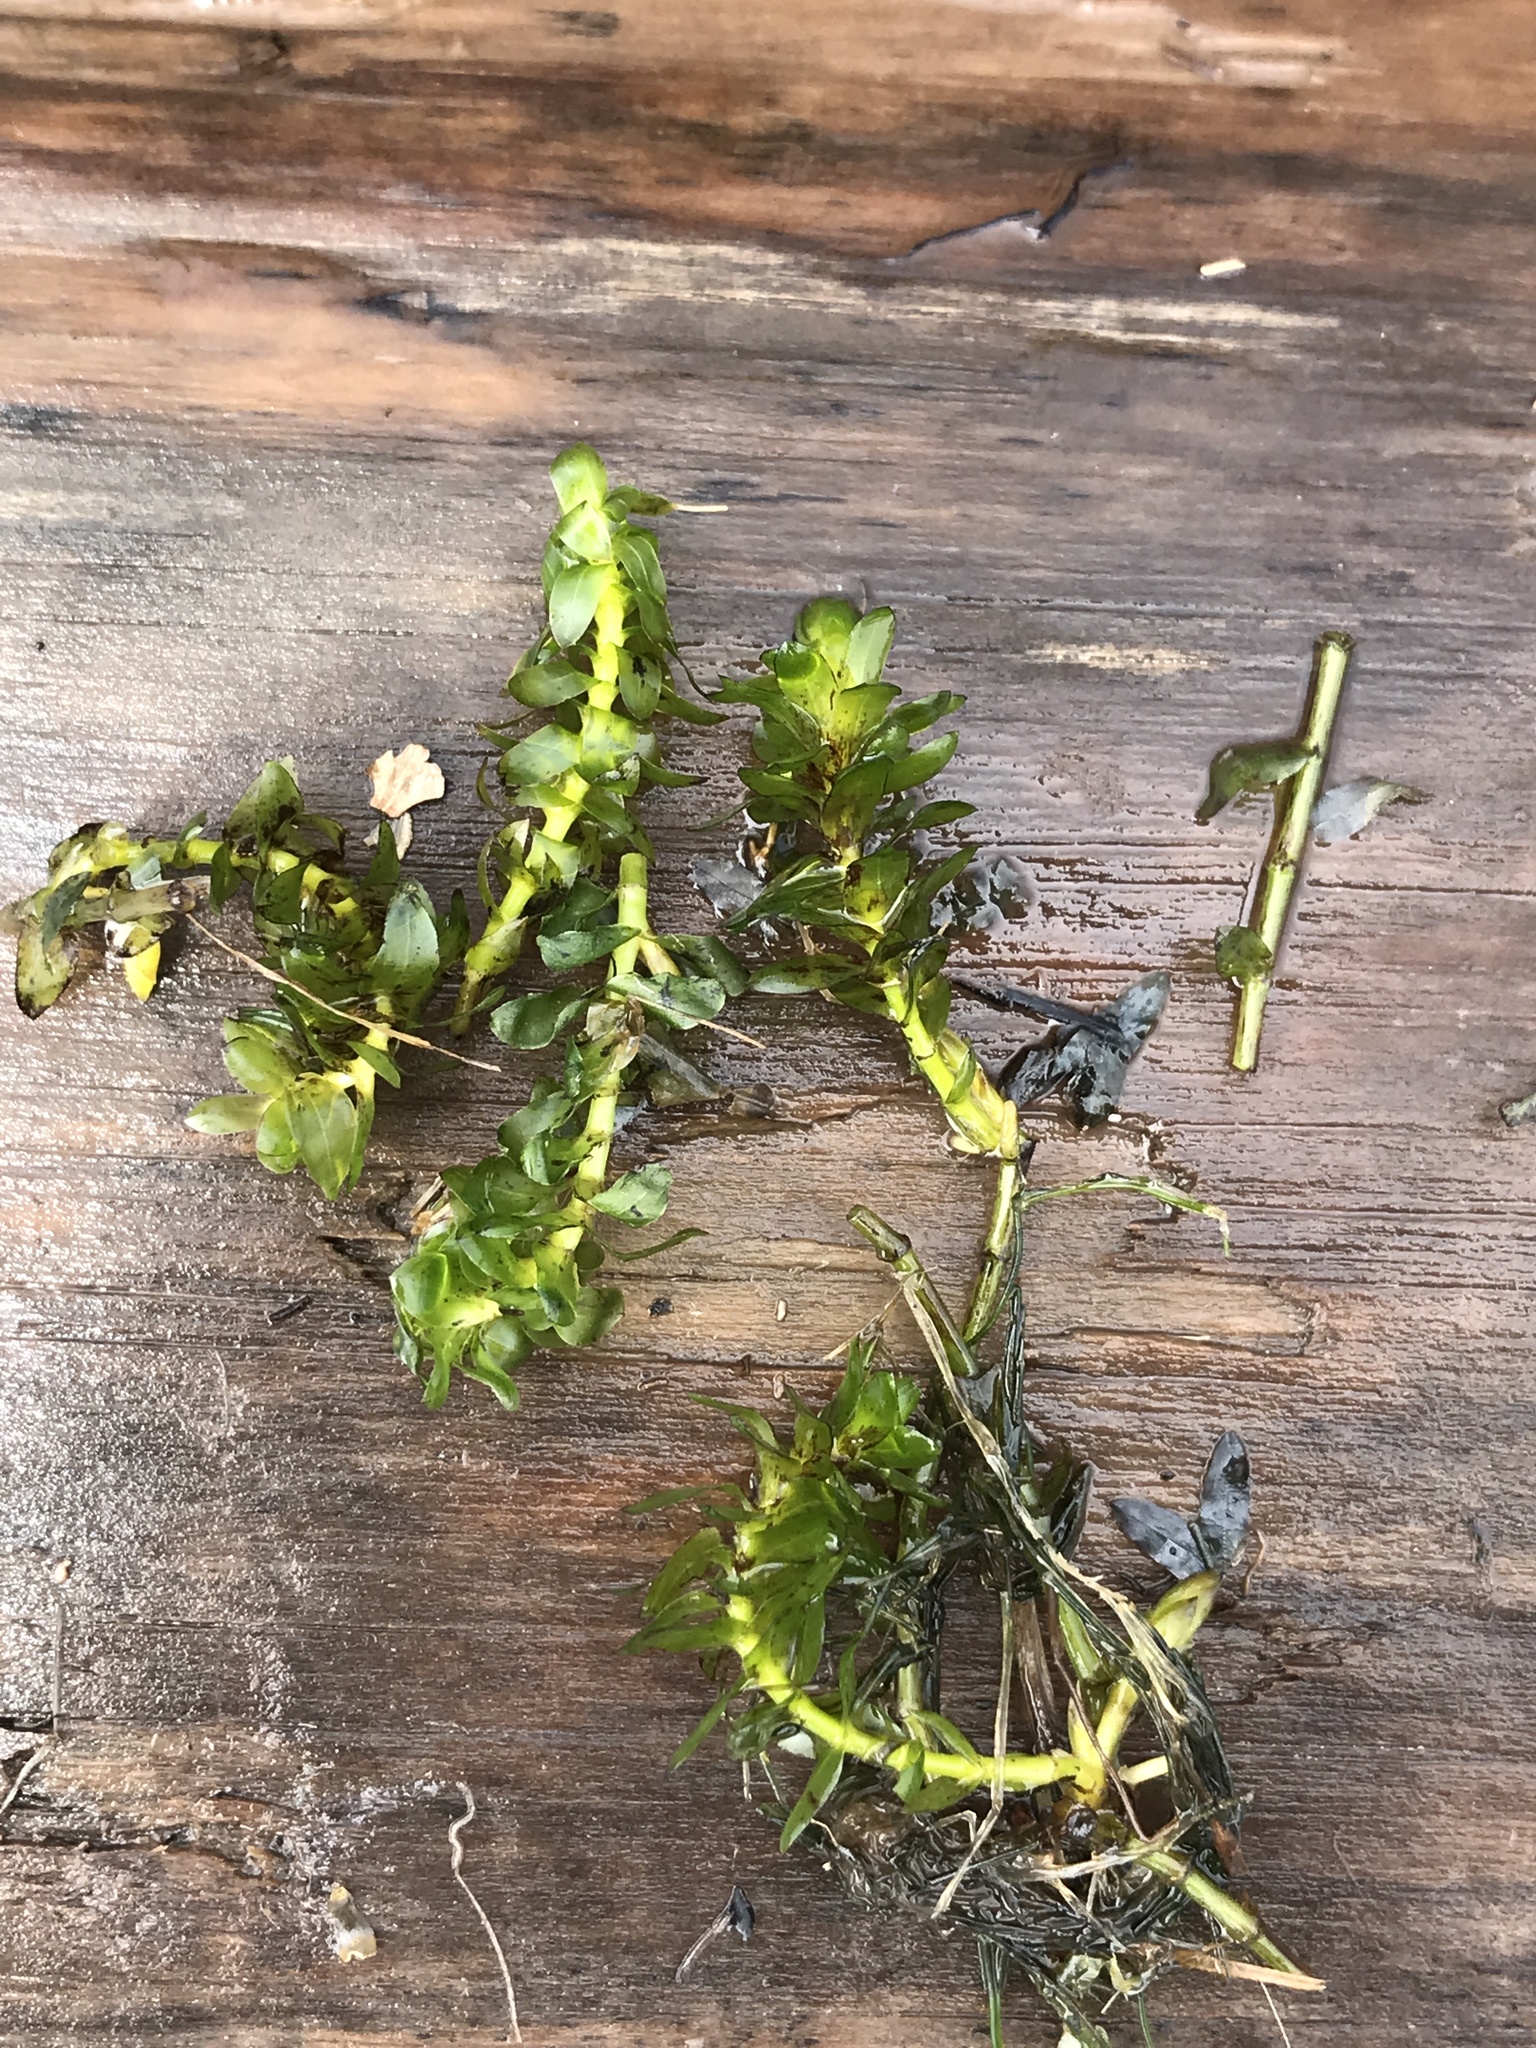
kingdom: Plantae
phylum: Tracheophyta
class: Liliopsida
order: Alismatales
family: Hydrocharitaceae
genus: Elodea
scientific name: Elodea canadensis
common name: Canadian waterweed
